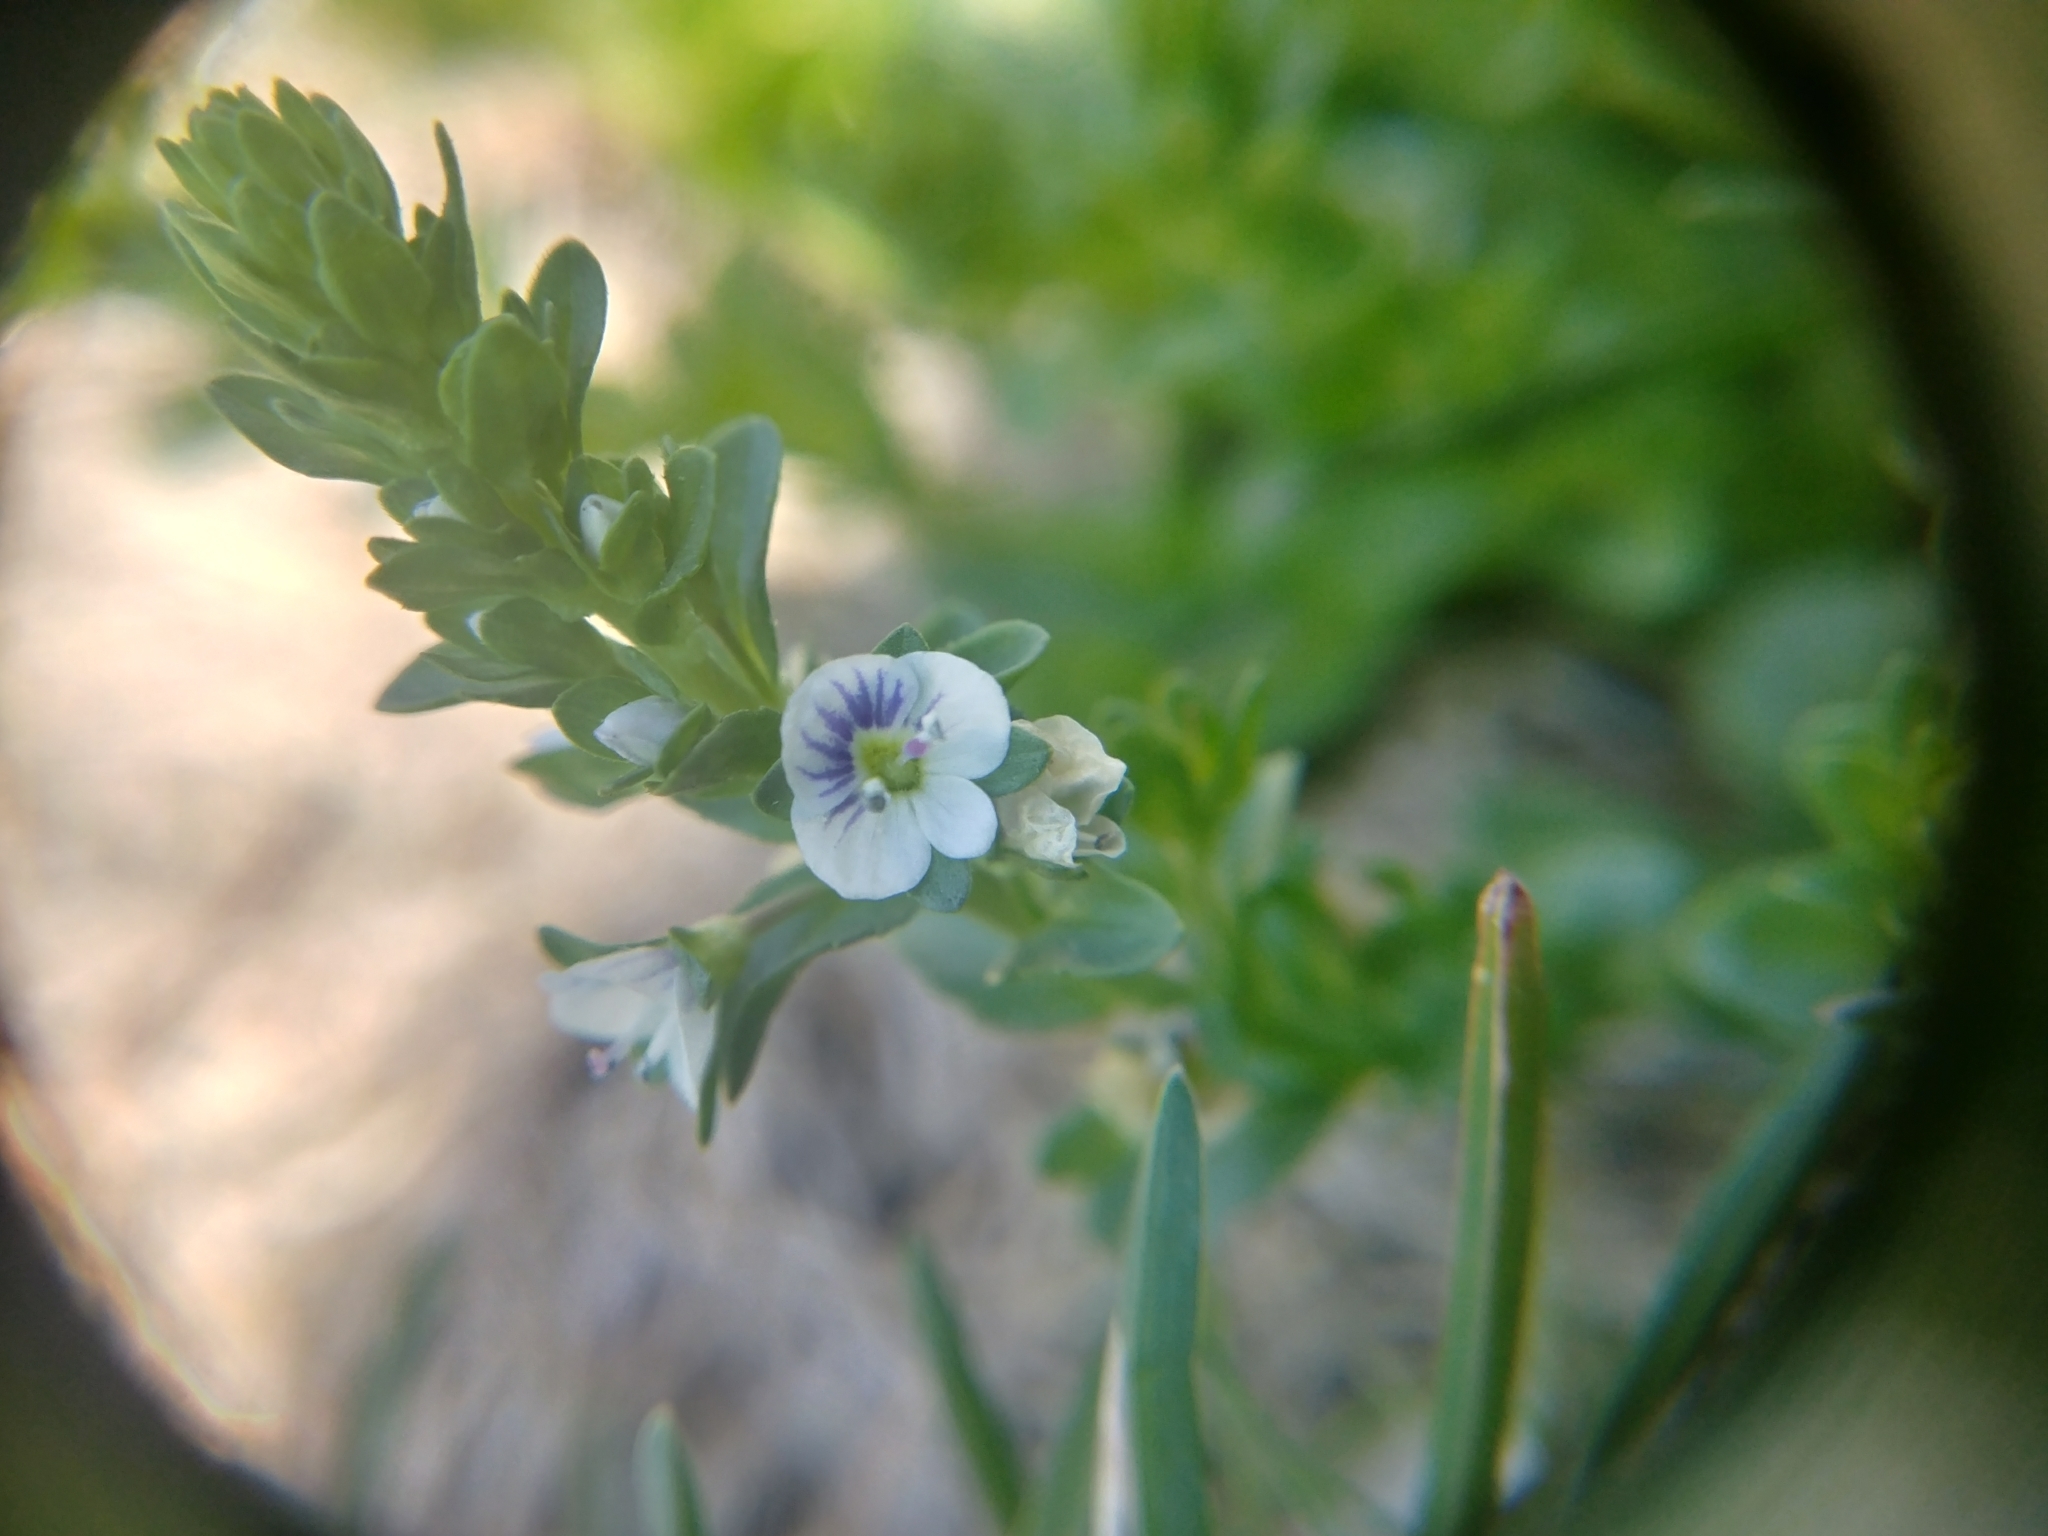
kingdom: Plantae
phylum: Tracheophyta
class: Magnoliopsida
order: Lamiales
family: Plantaginaceae
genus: Veronica
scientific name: Veronica serpyllifolia
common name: Thyme-leaved speedwell
